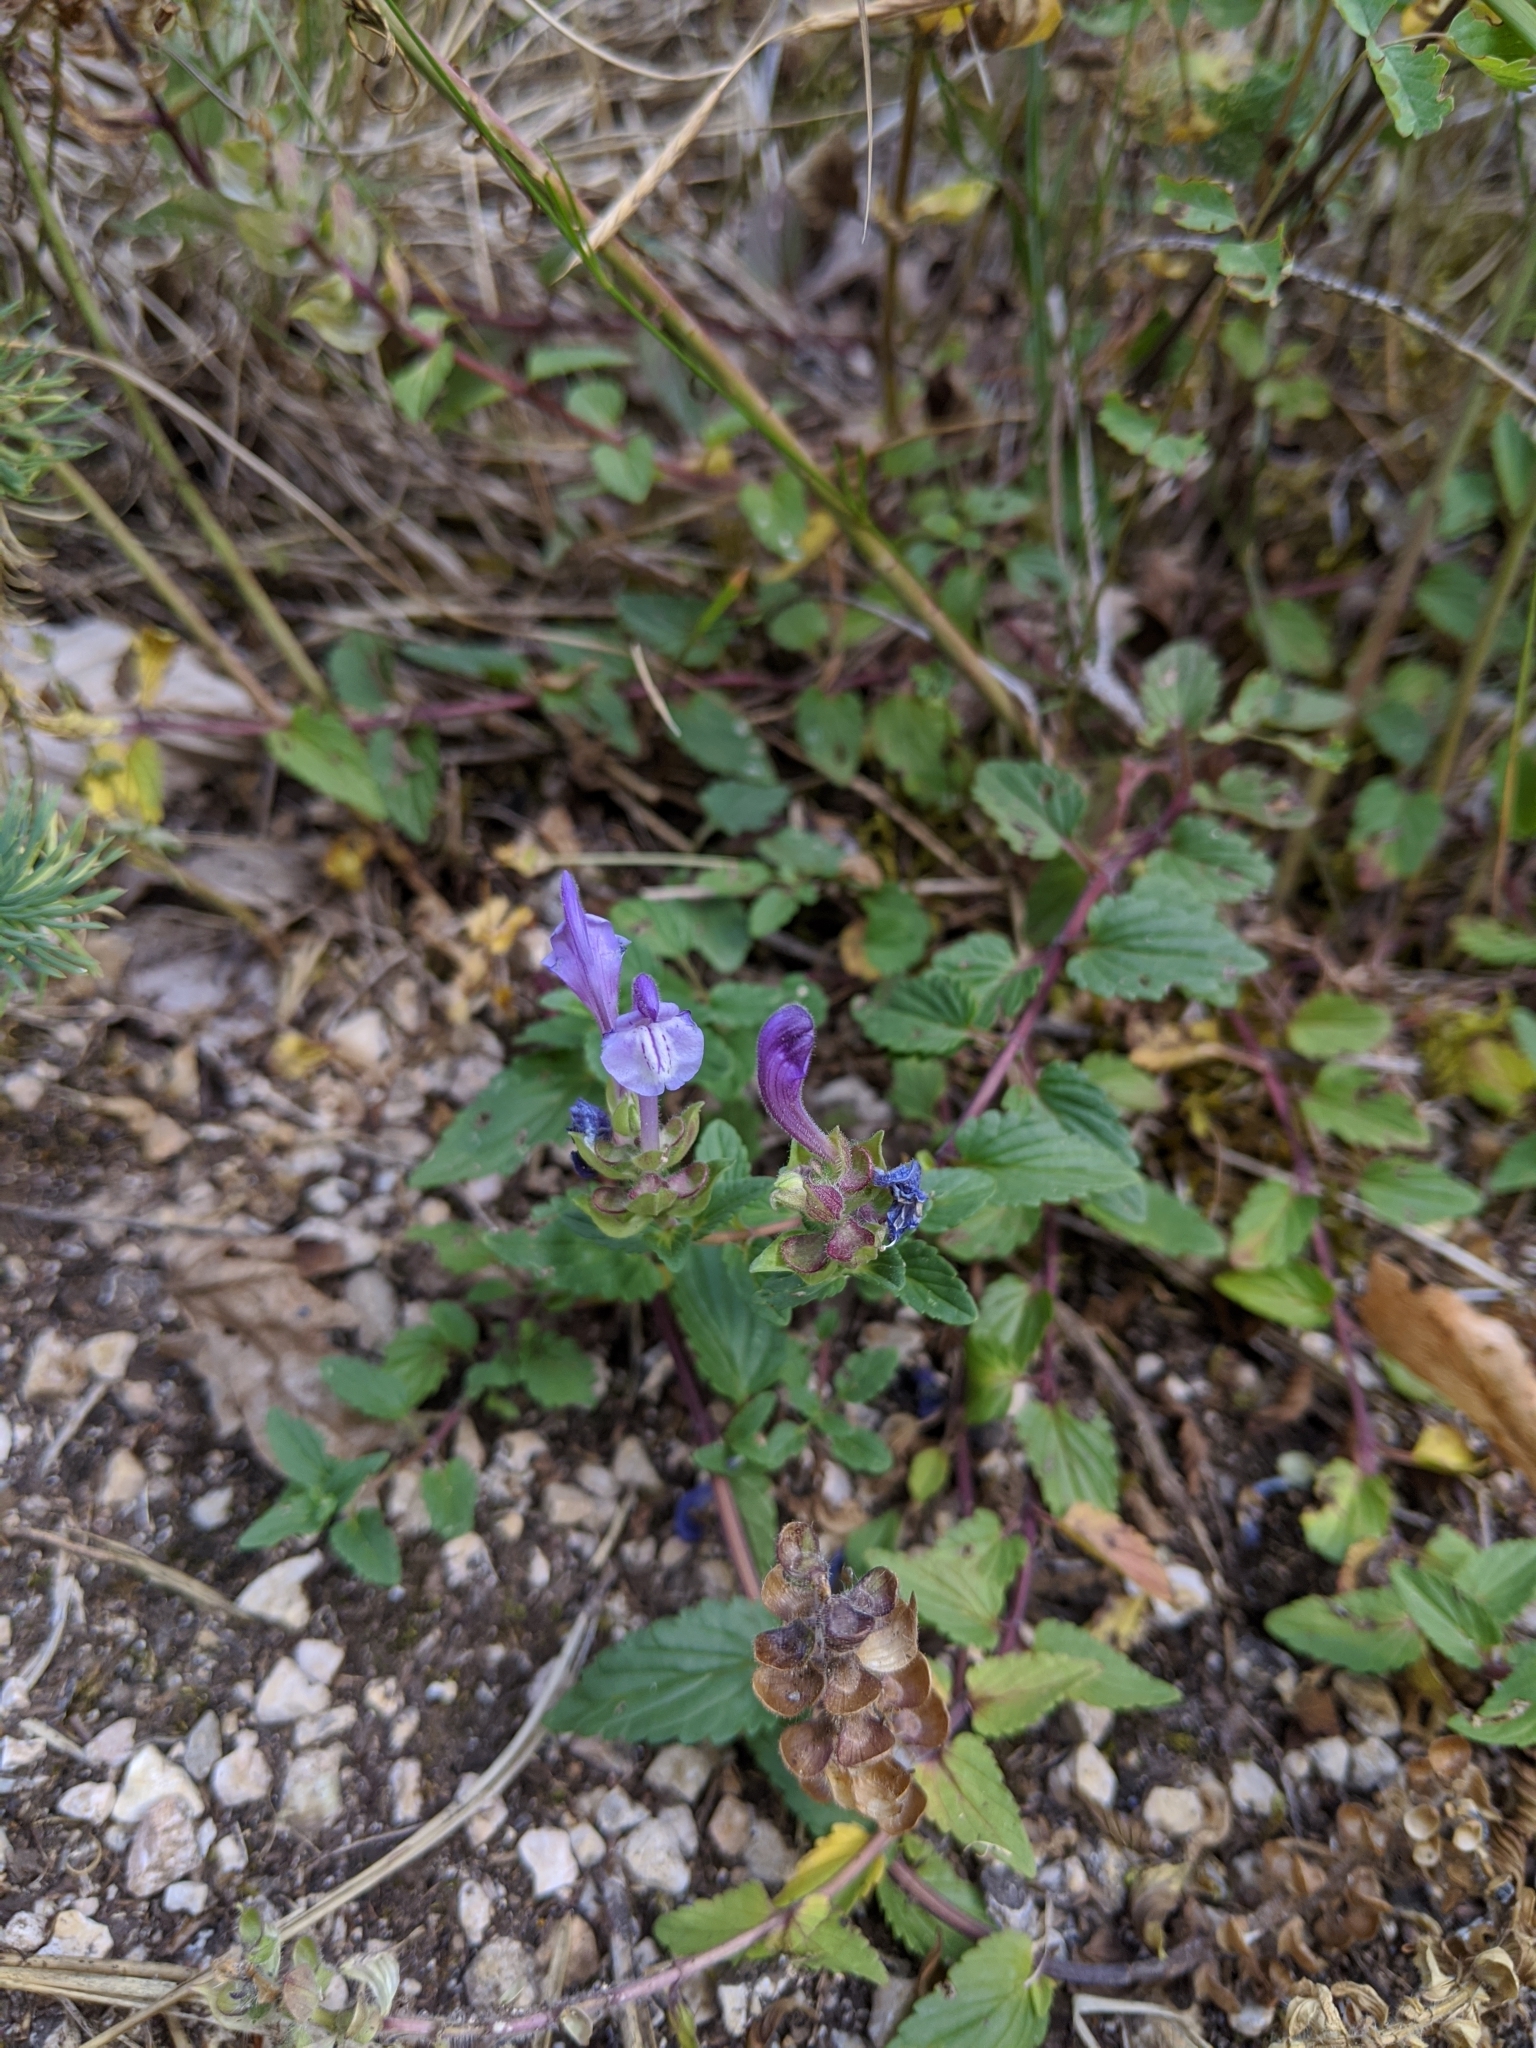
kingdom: Plantae
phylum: Tracheophyta
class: Magnoliopsida
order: Lamiales
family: Lamiaceae
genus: Scutellaria
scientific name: Scutellaria alpina
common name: Alpine scullcap
